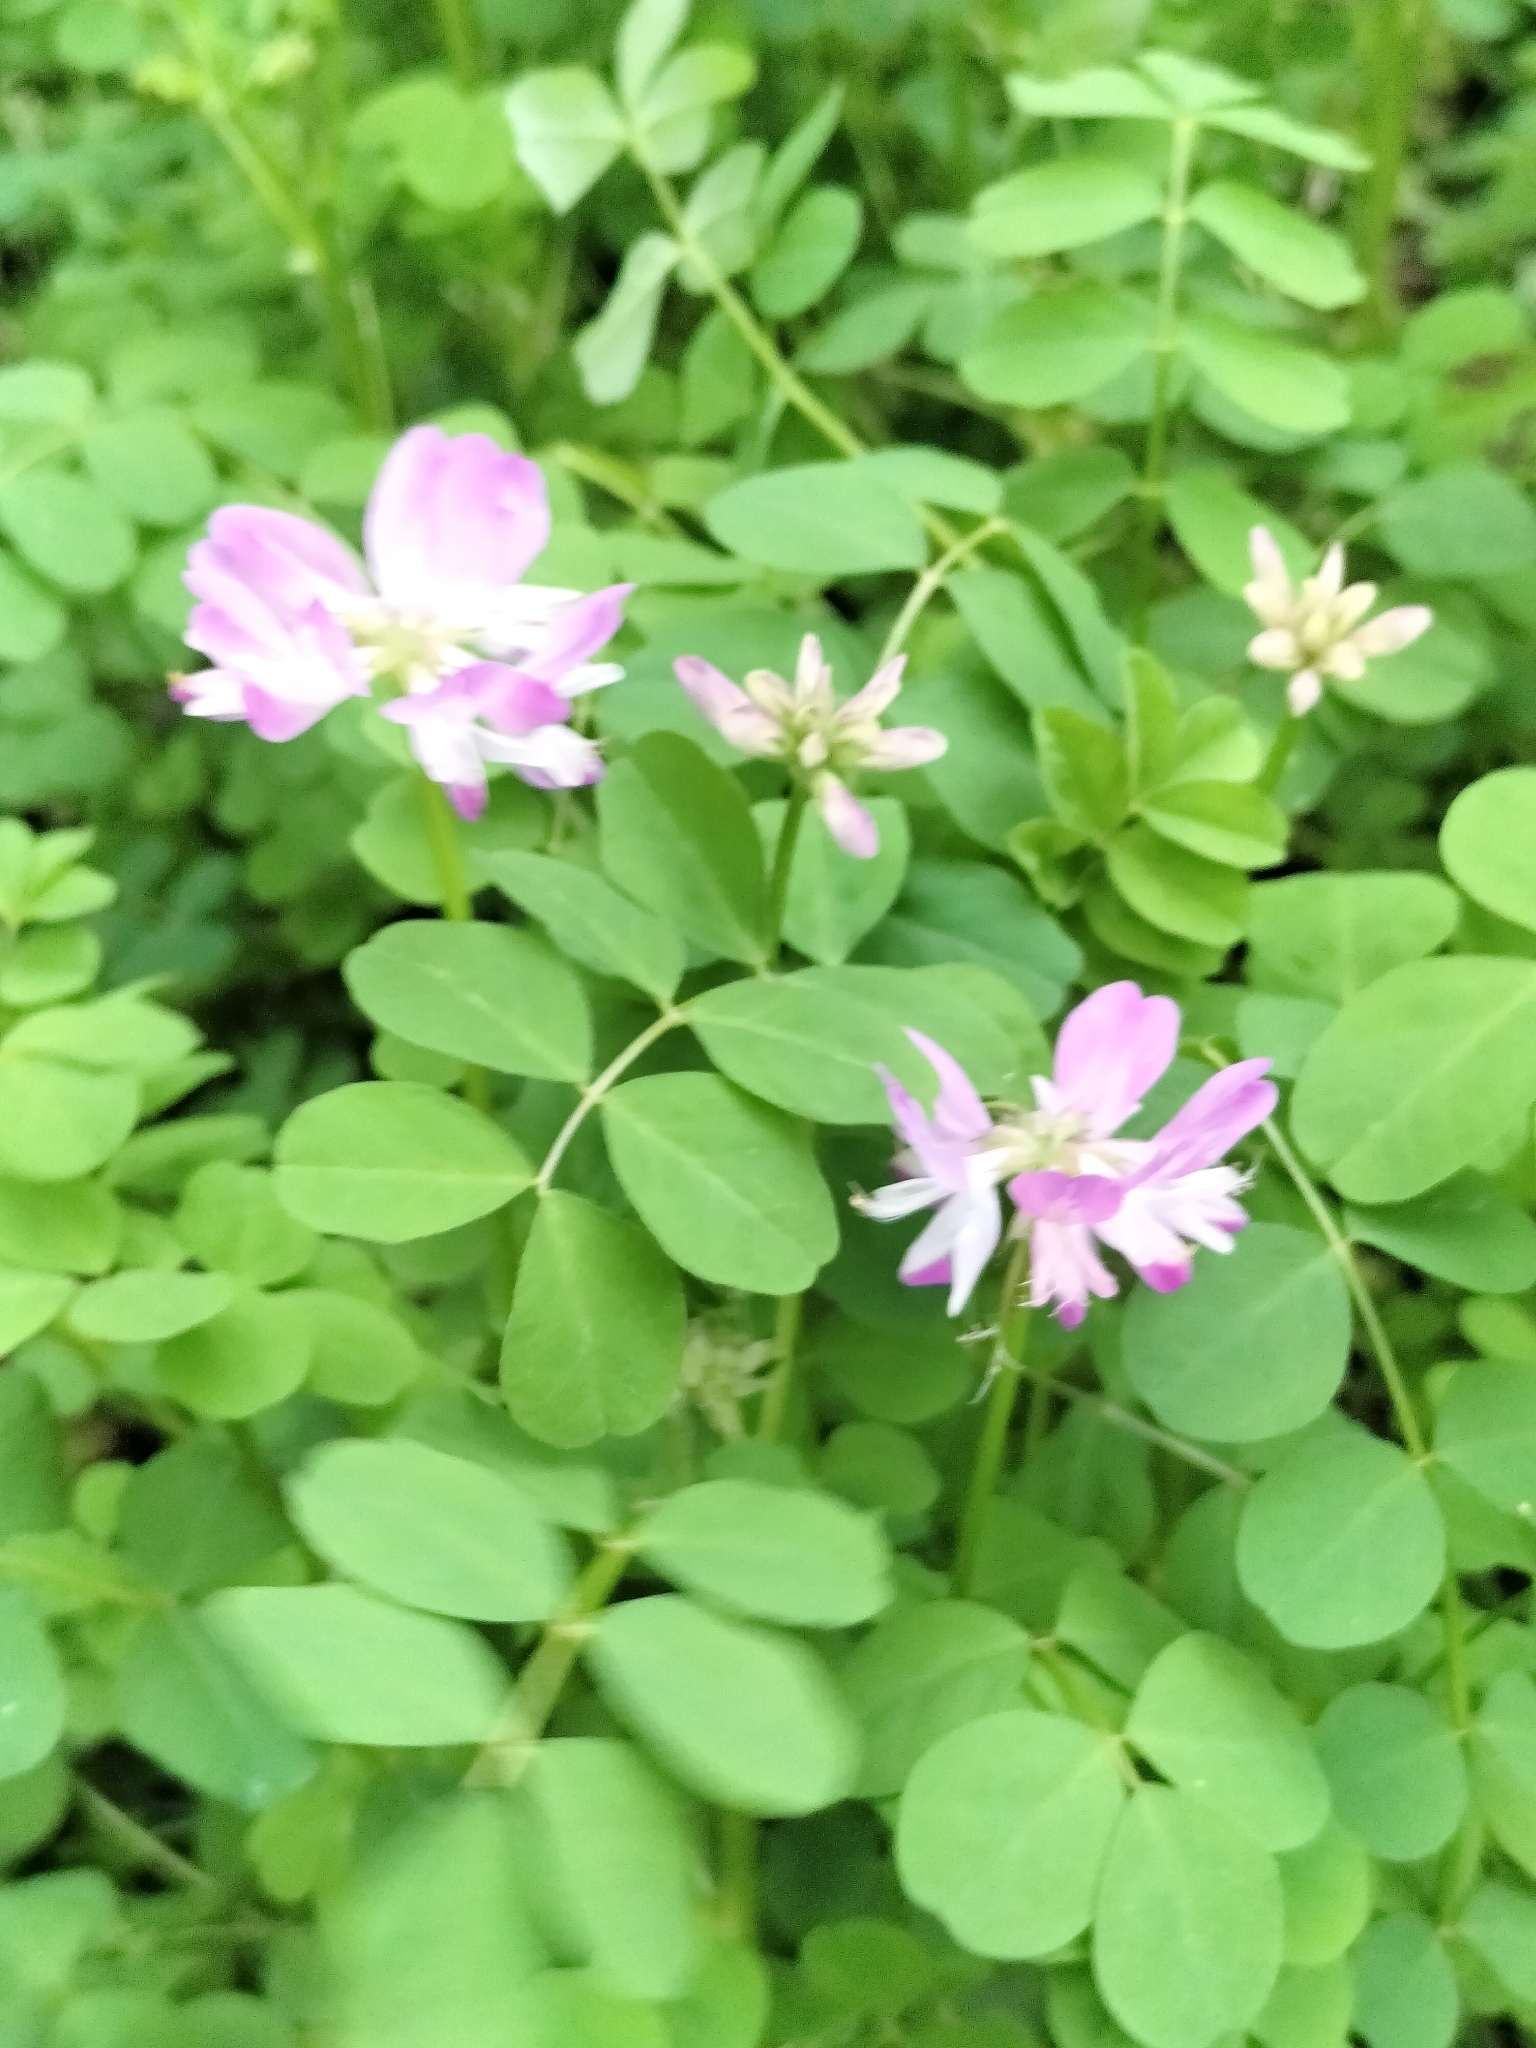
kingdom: Plantae
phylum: Tracheophyta
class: Magnoliopsida
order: Fabales
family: Fabaceae
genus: Astragalus
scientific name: Astragalus sinicus
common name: Chinese milk-vetch
